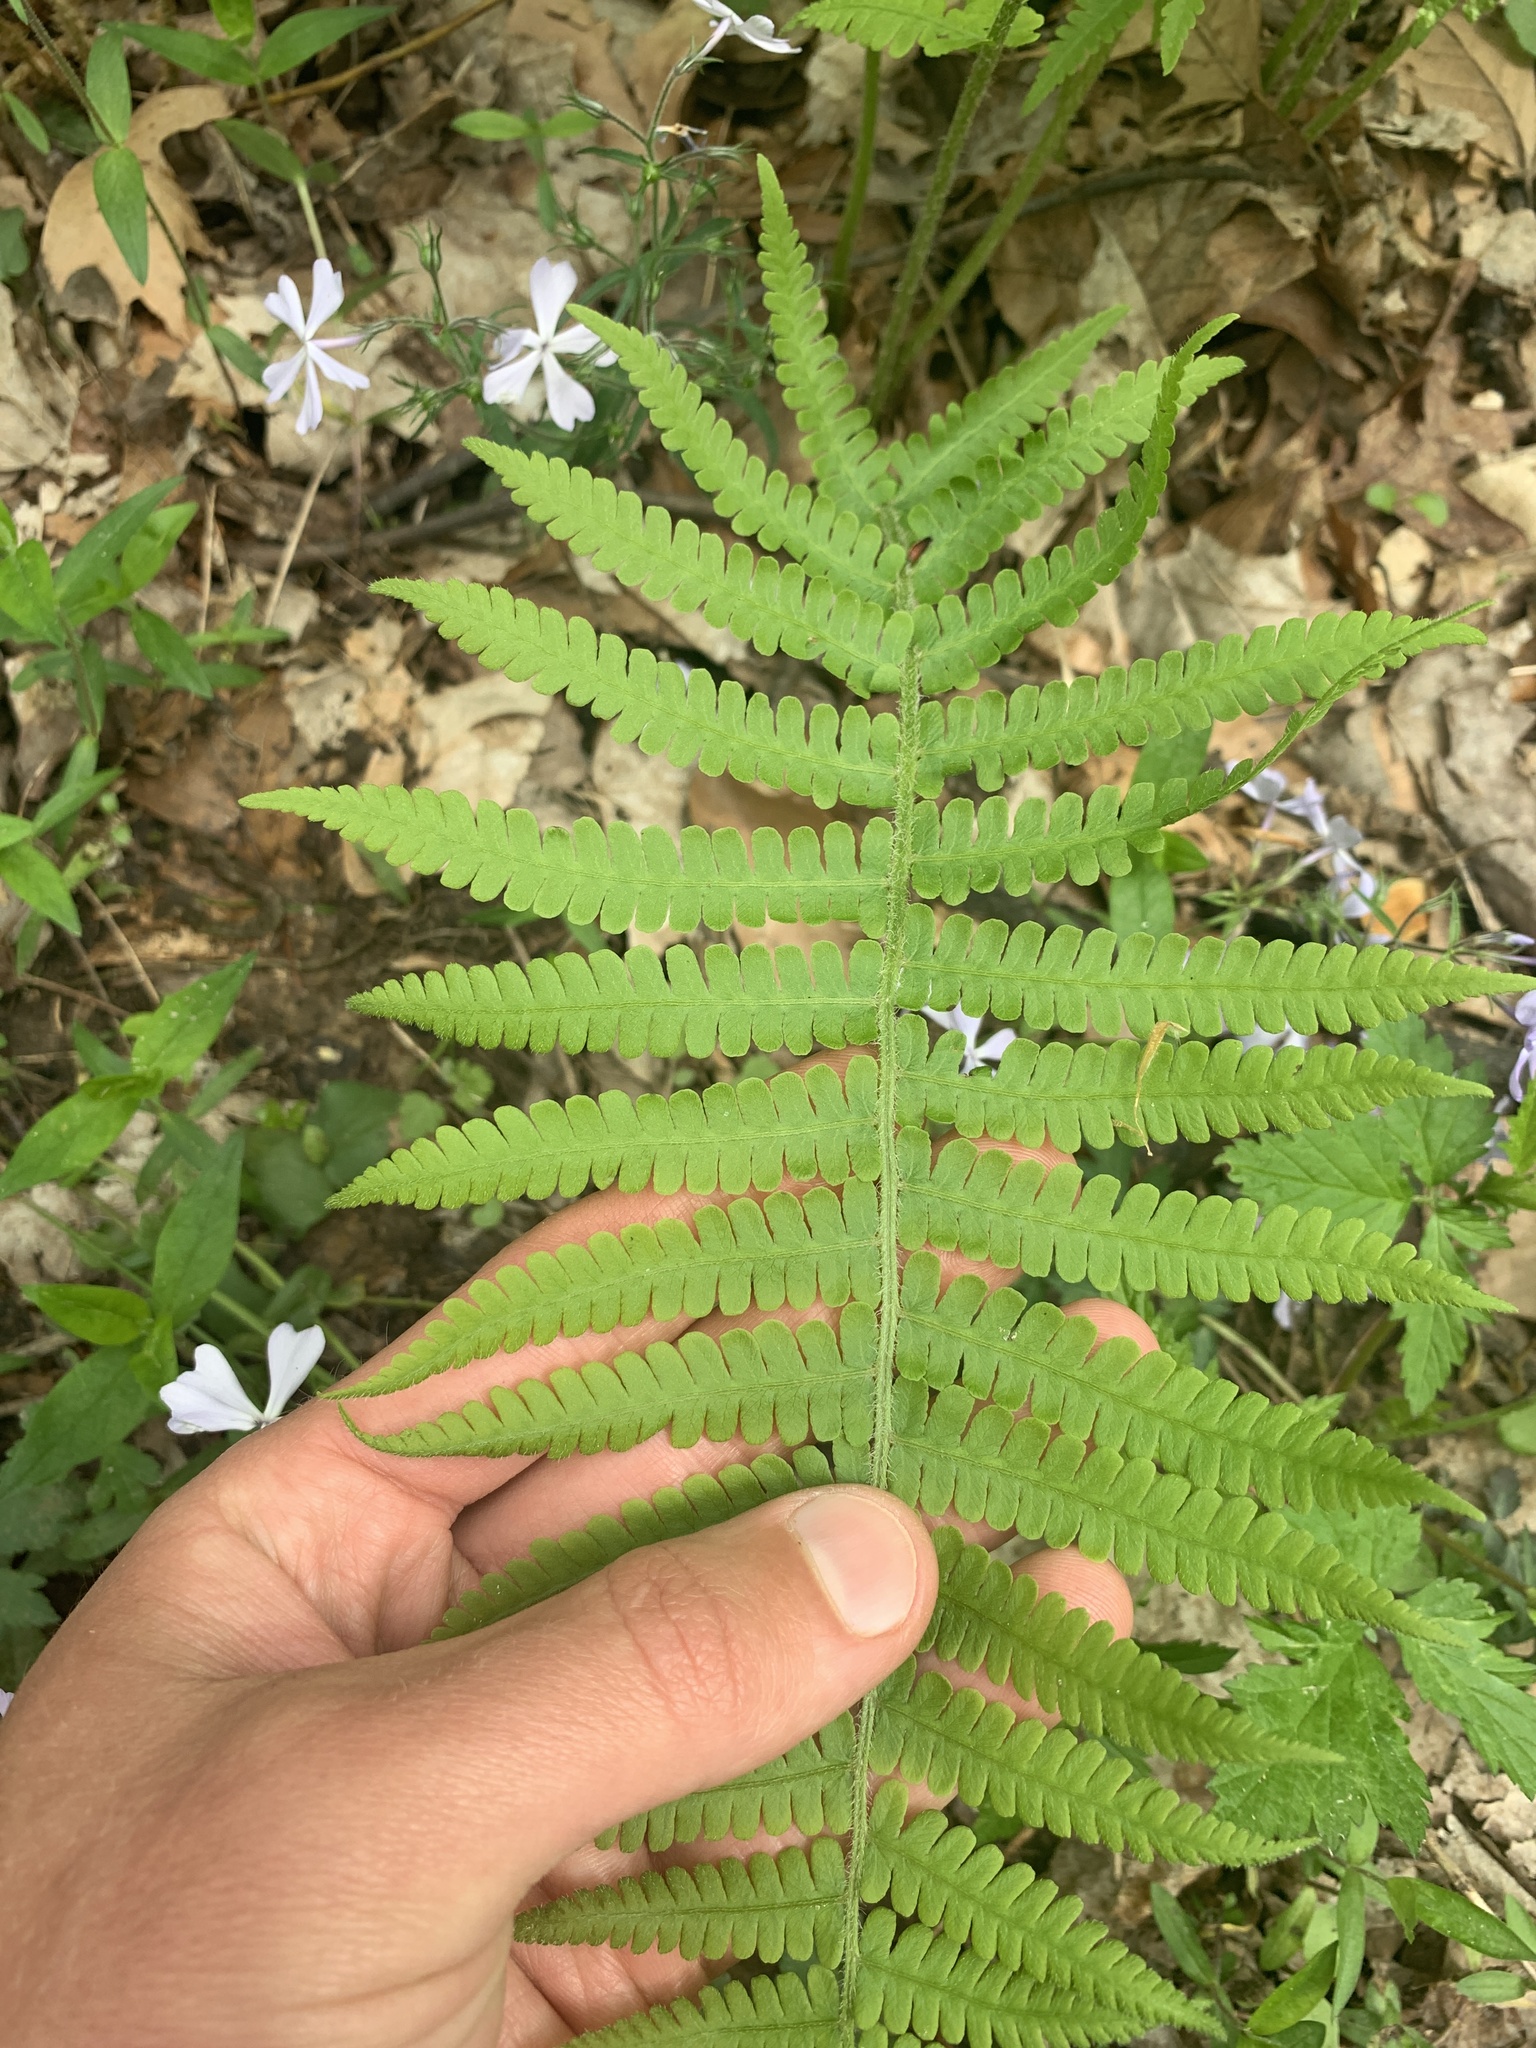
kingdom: Plantae
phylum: Tracheophyta
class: Polypodiopsida
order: Polypodiales
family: Athyriaceae
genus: Deparia
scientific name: Deparia acrostichoides
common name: Silver false spleenwort
